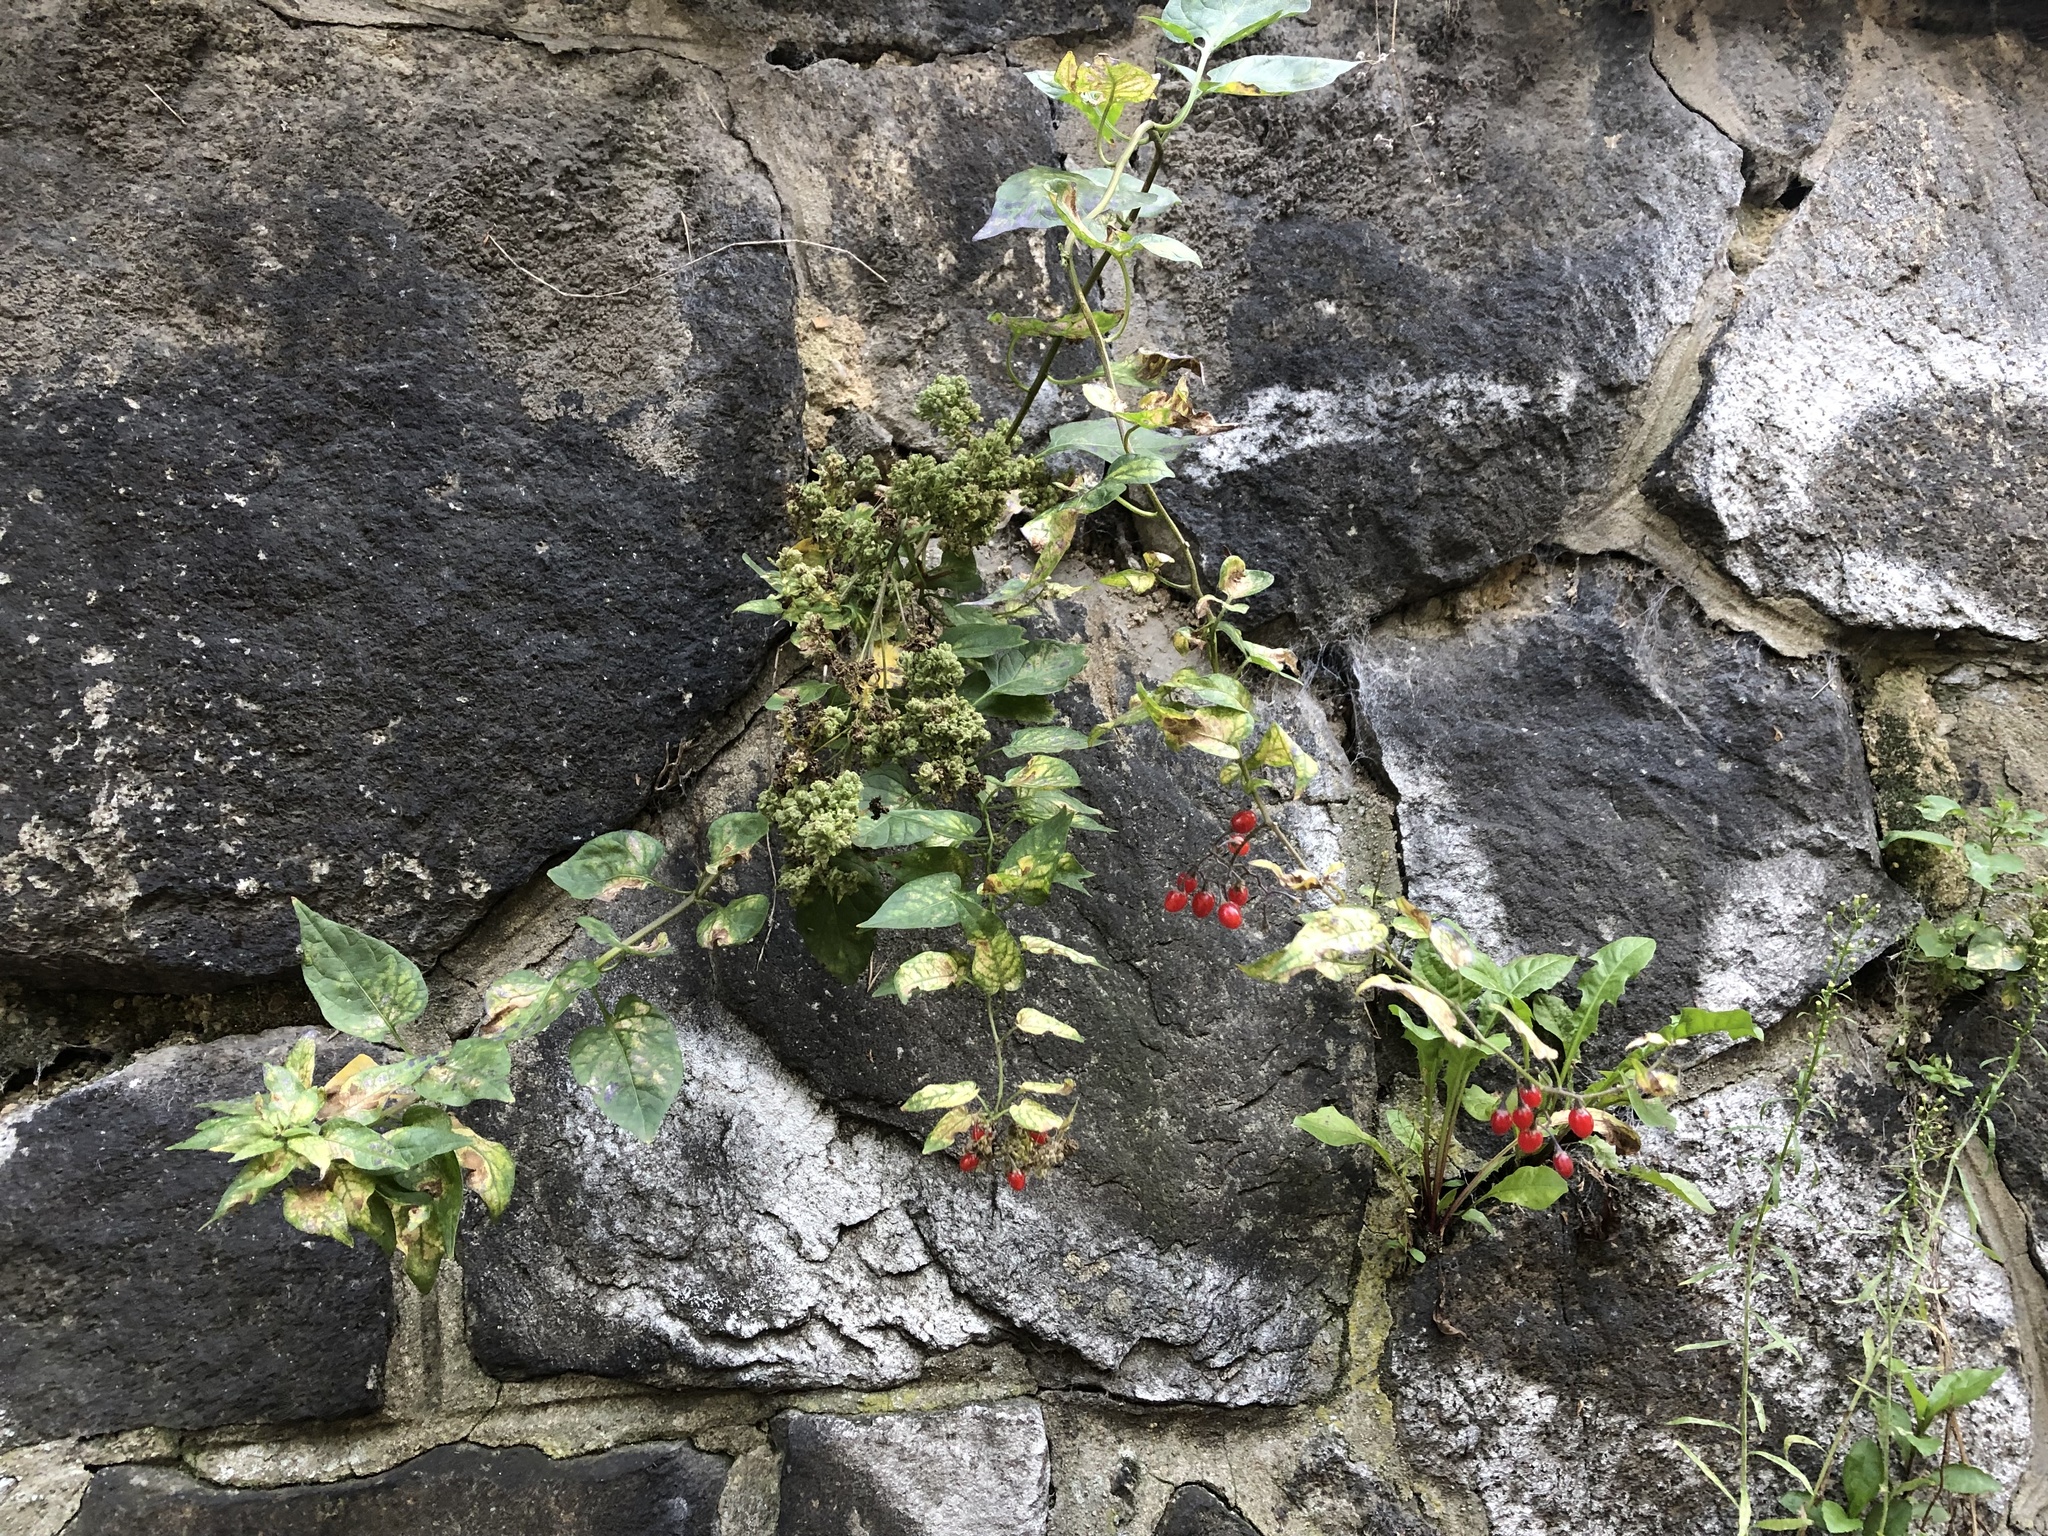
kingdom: Plantae
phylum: Tracheophyta
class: Magnoliopsida
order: Solanales
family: Solanaceae
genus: Solanum
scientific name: Solanum dulcamara
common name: Climbing nightshade
